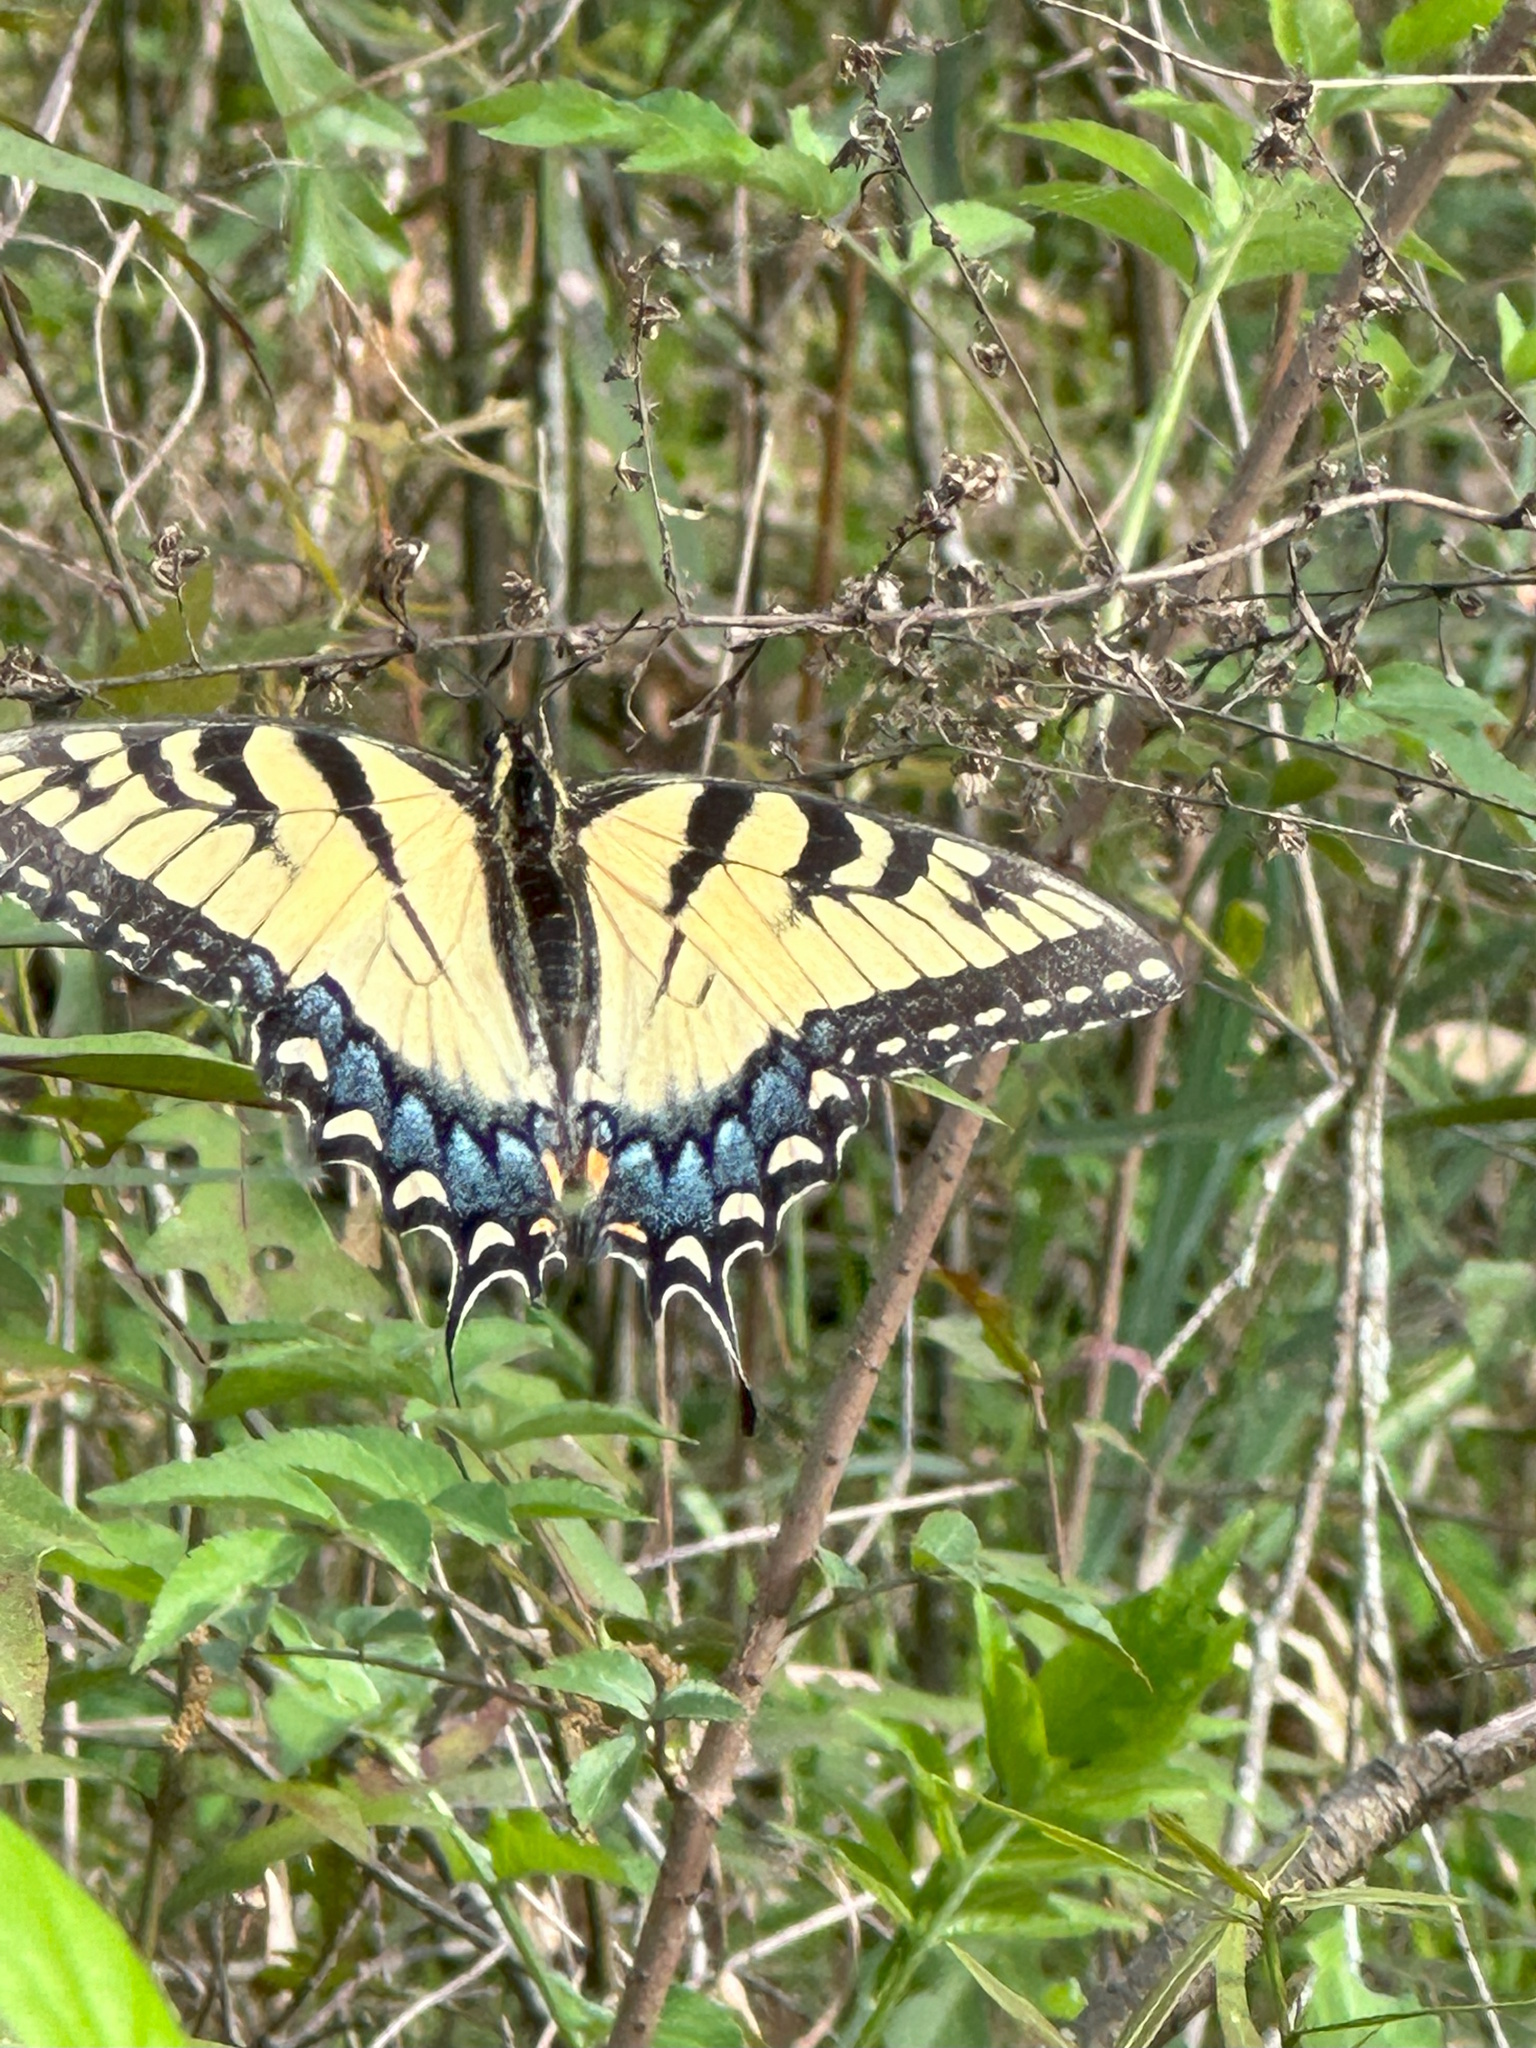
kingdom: Animalia
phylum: Arthropoda
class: Insecta
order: Lepidoptera
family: Papilionidae
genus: Papilio
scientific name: Papilio glaucus
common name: Tiger swallowtail
